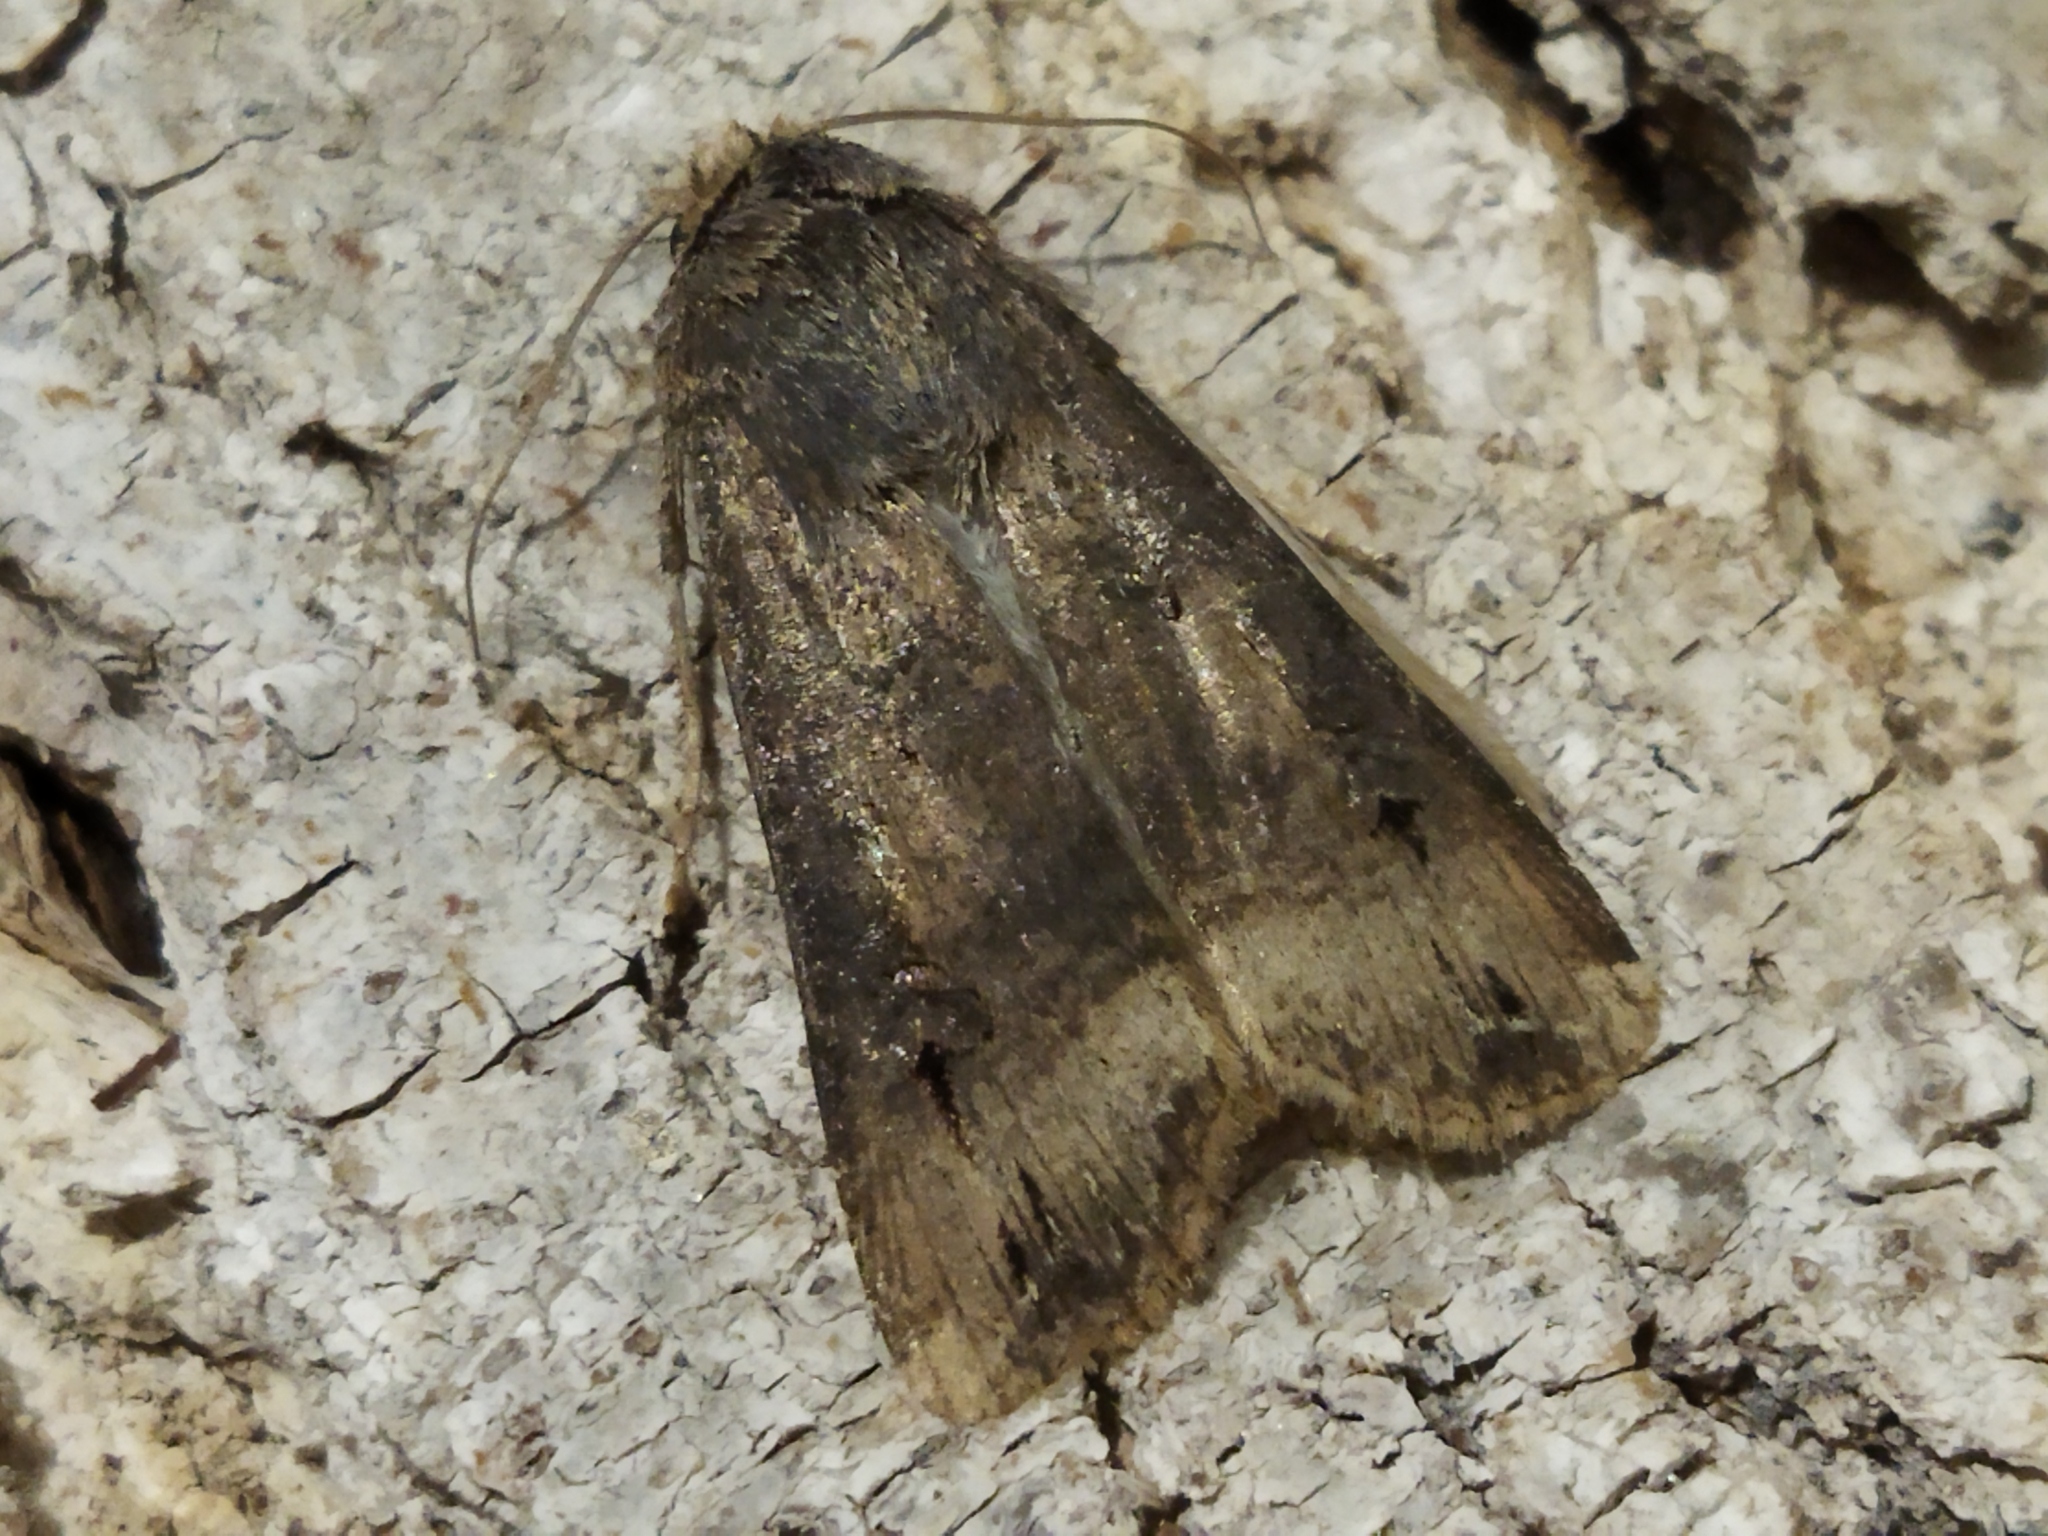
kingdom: Animalia
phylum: Arthropoda
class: Insecta
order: Lepidoptera
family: Noctuidae
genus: Agrotis
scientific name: Agrotis ipsilon
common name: Dark sword-grass
